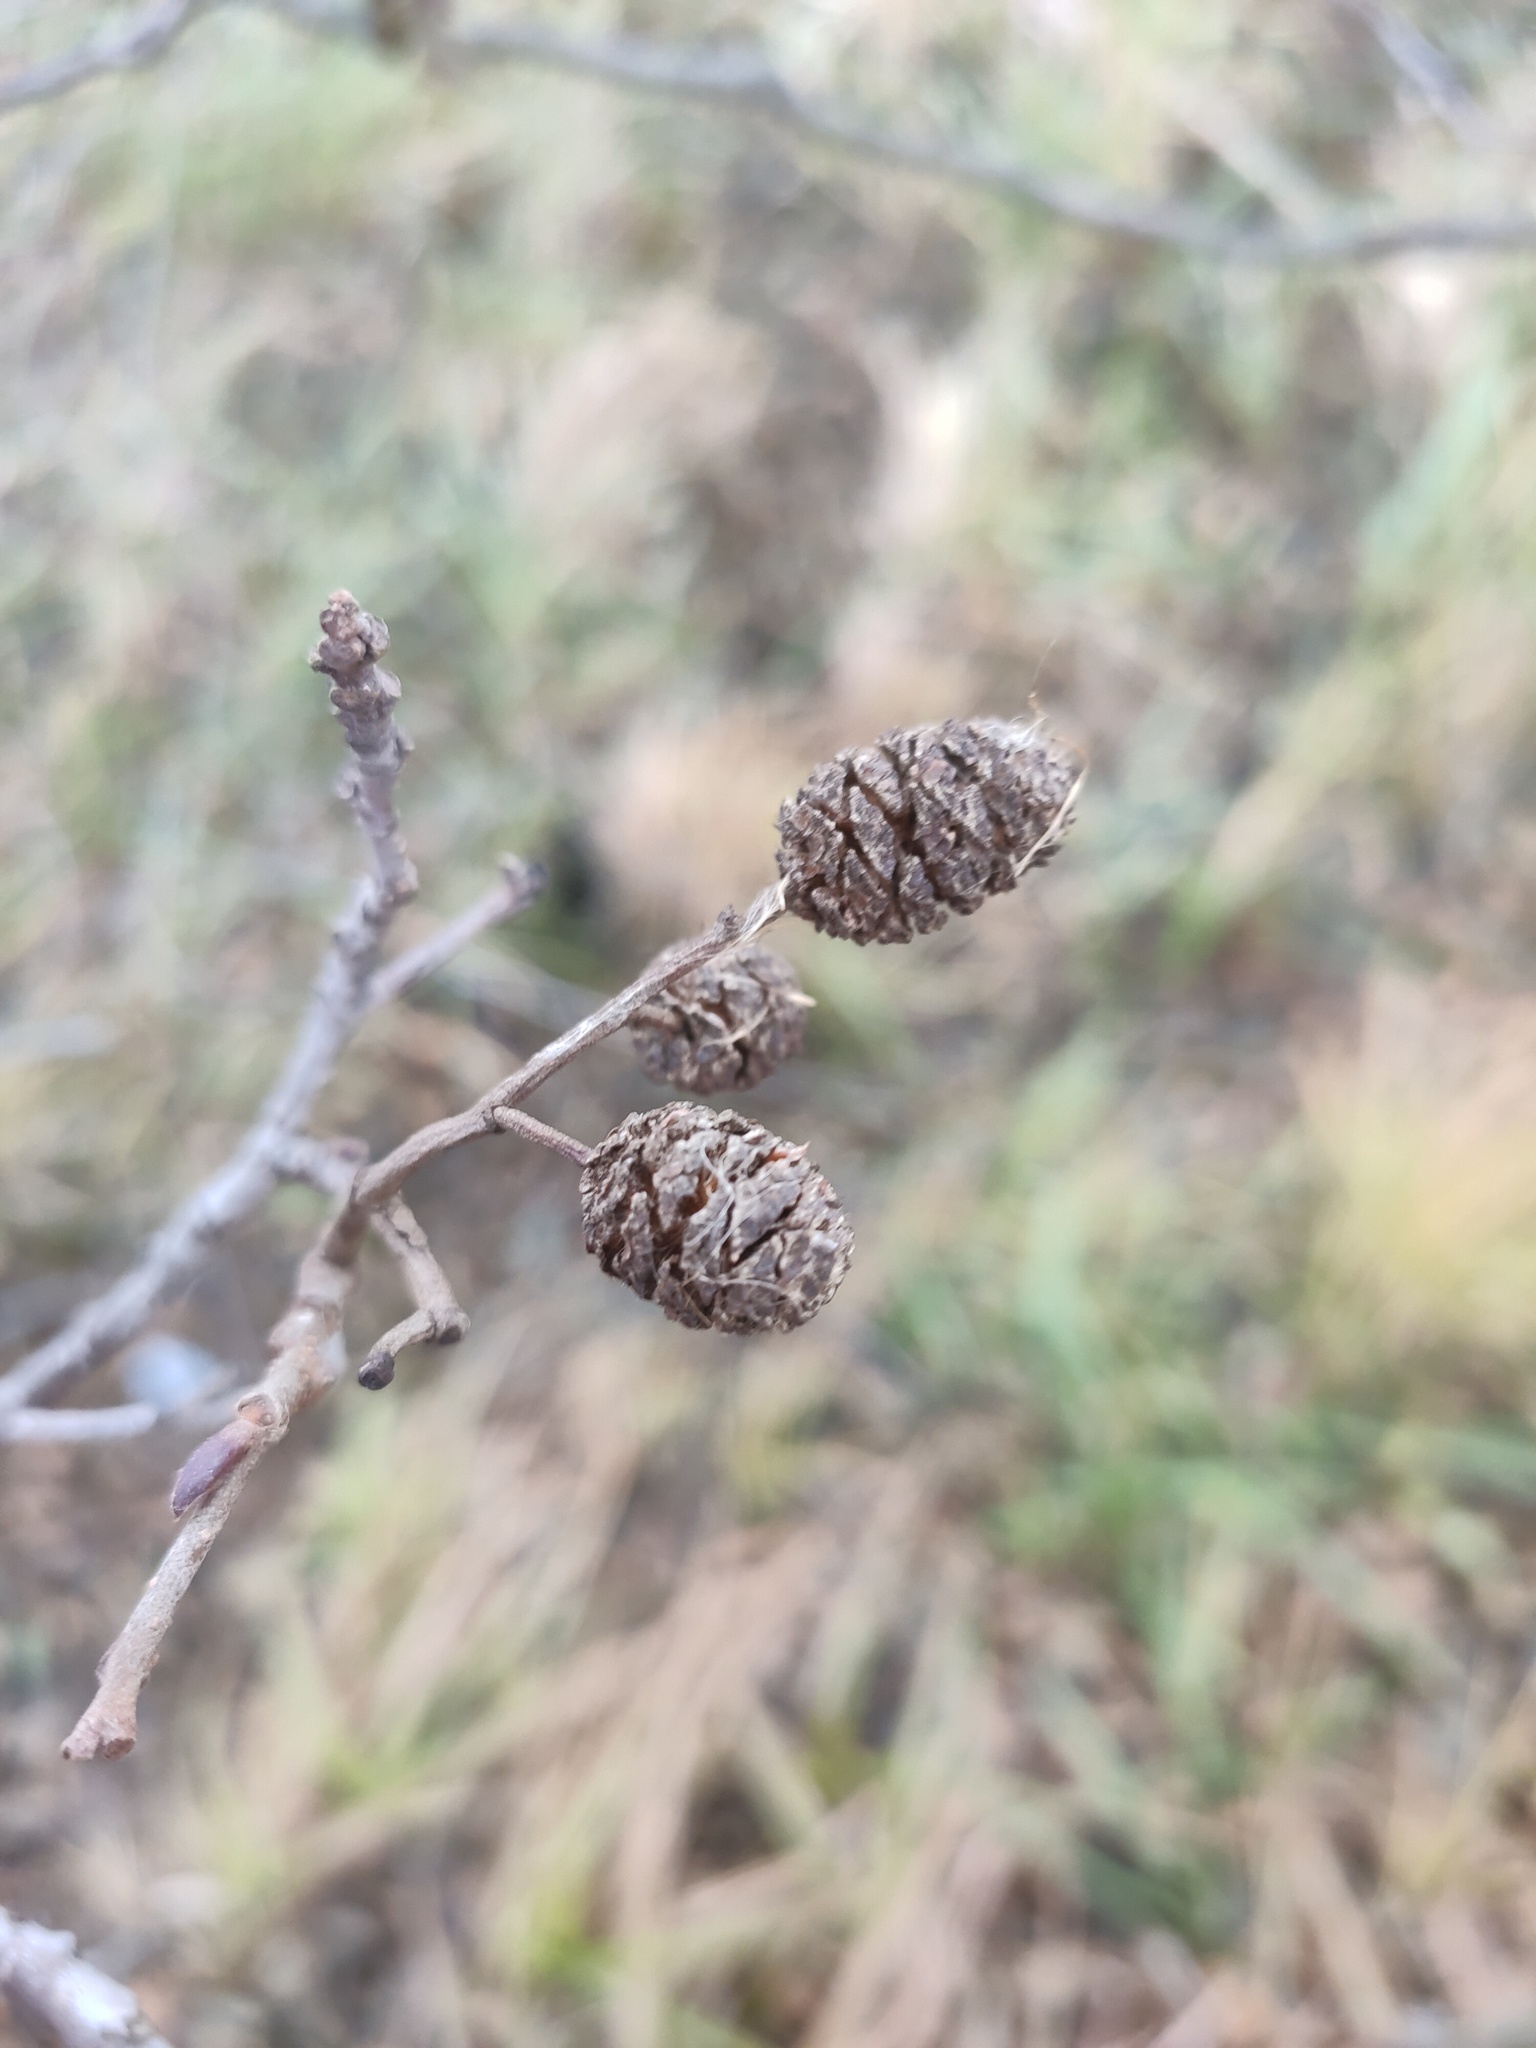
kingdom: Plantae
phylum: Tracheophyta
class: Magnoliopsida
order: Fagales
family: Betulaceae
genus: Alnus
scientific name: Alnus glutinosa
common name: Black alder
